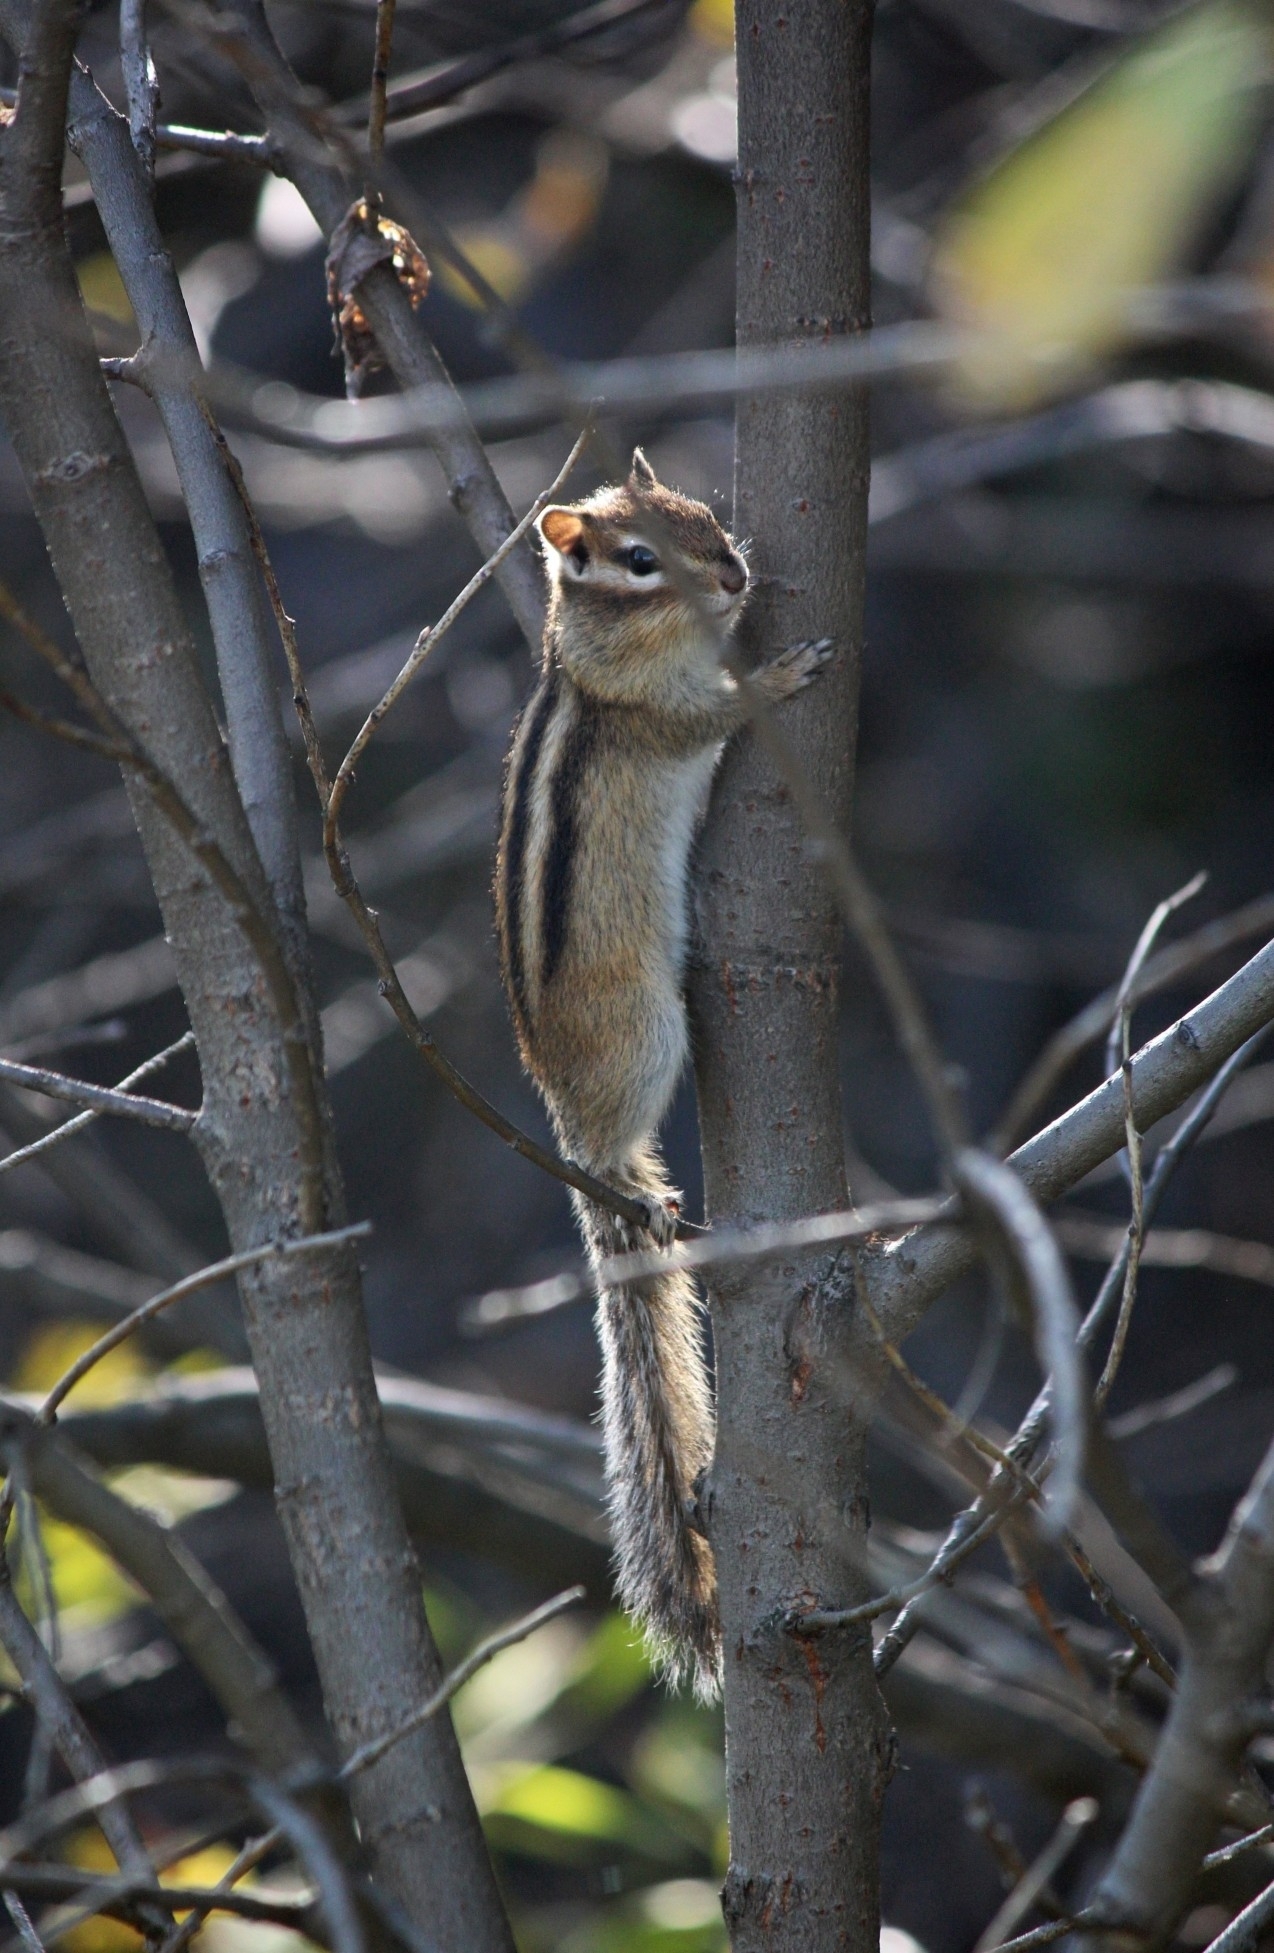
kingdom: Animalia
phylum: Chordata
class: Mammalia
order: Rodentia
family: Sciuridae
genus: Tamias
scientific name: Tamias sibiricus
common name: Siberian chipmunk
